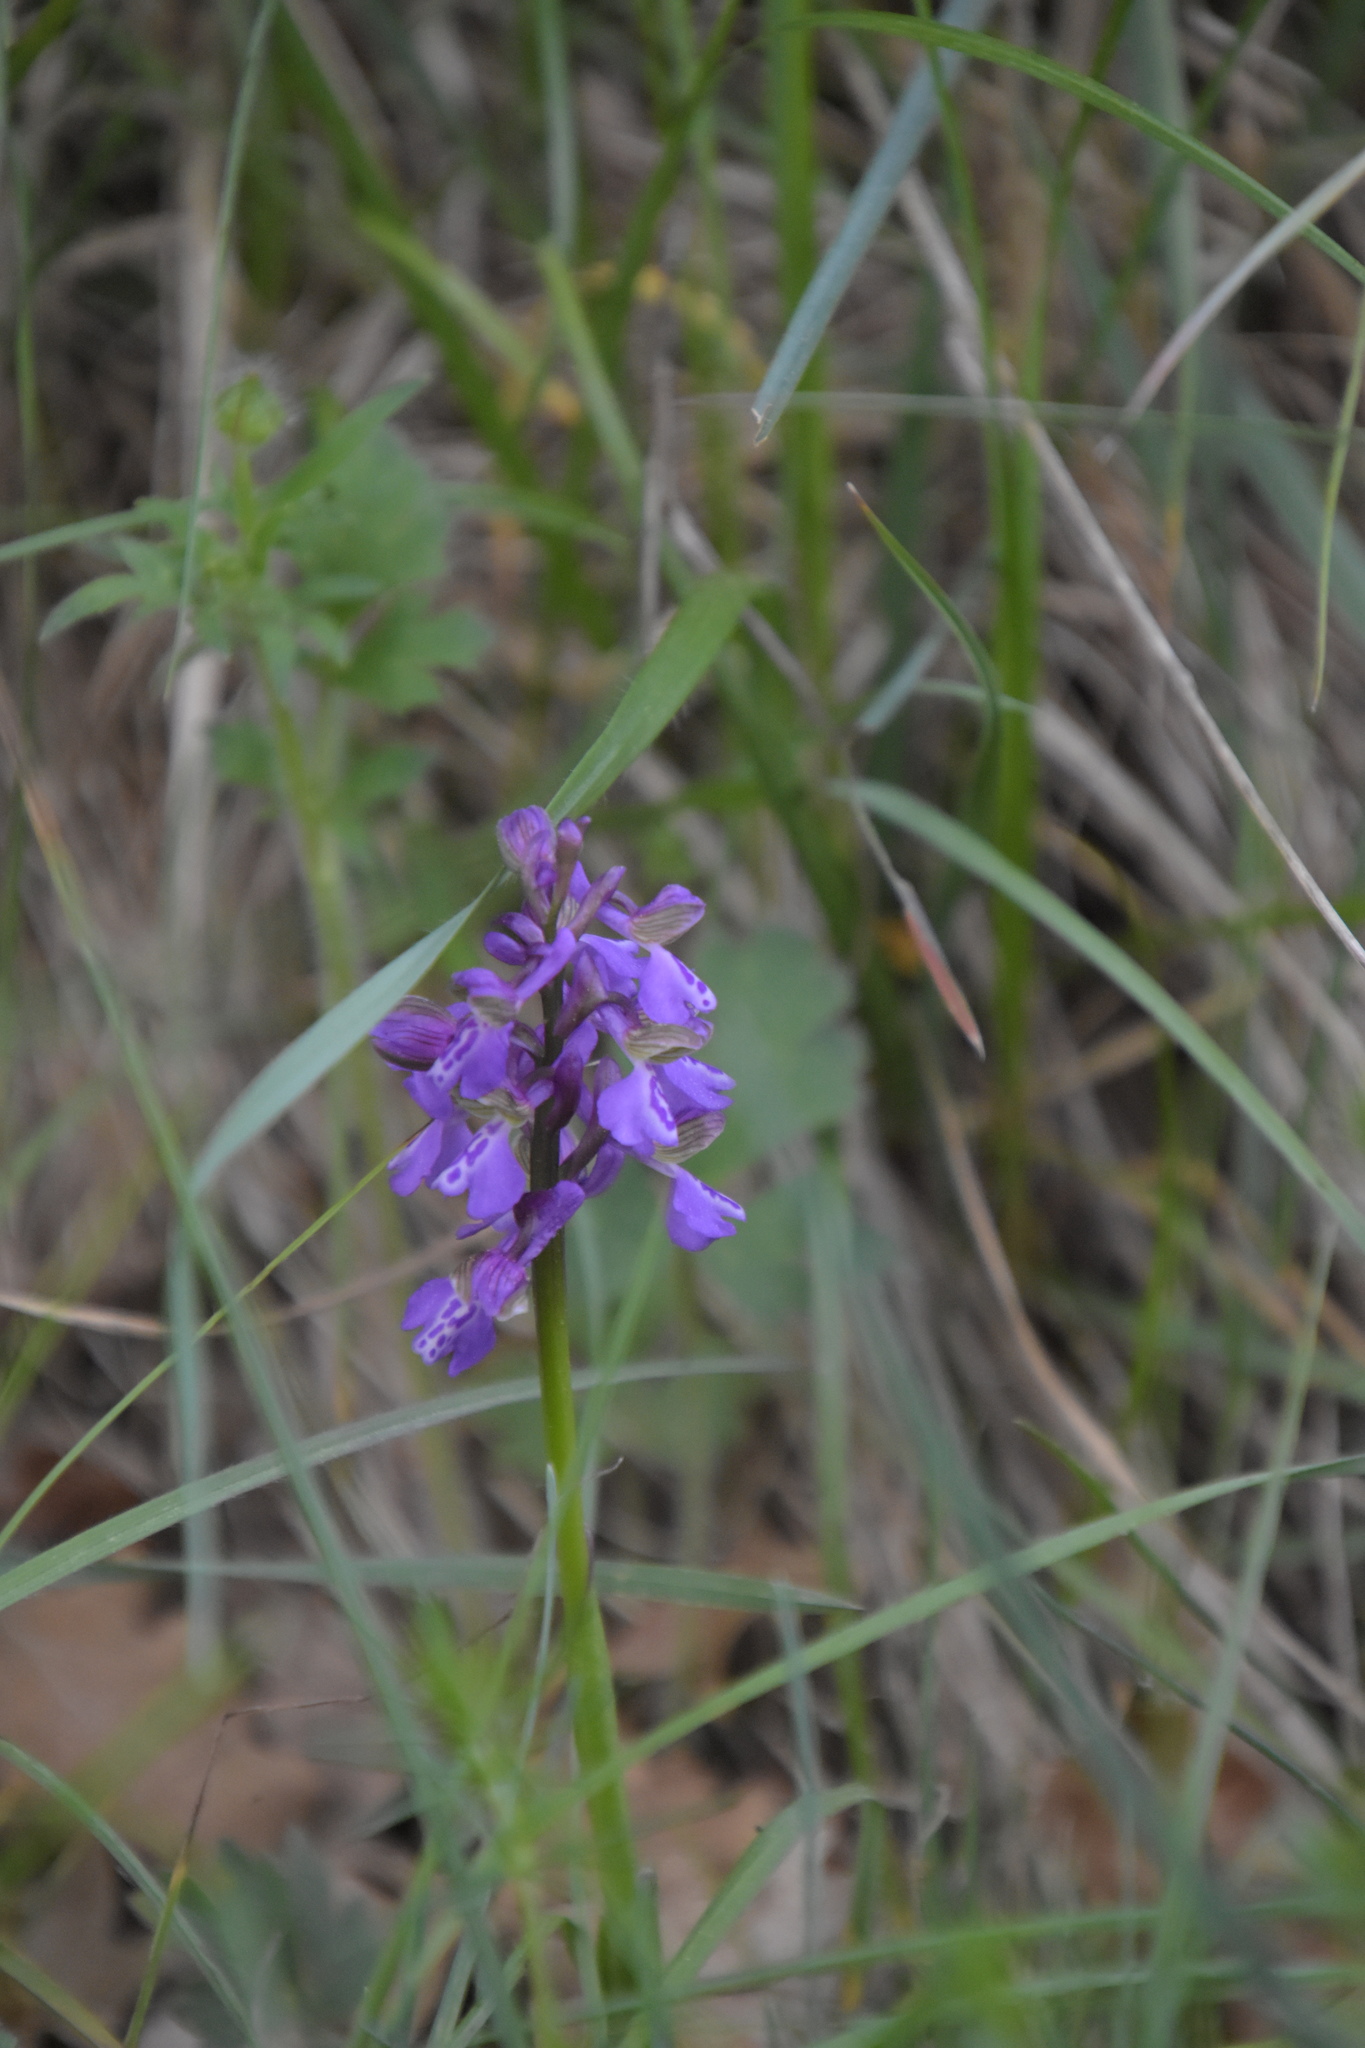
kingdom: Plantae
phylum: Tracheophyta
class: Liliopsida
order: Asparagales
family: Orchidaceae
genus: Anacamptis
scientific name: Anacamptis morio
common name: Green-winged orchid
